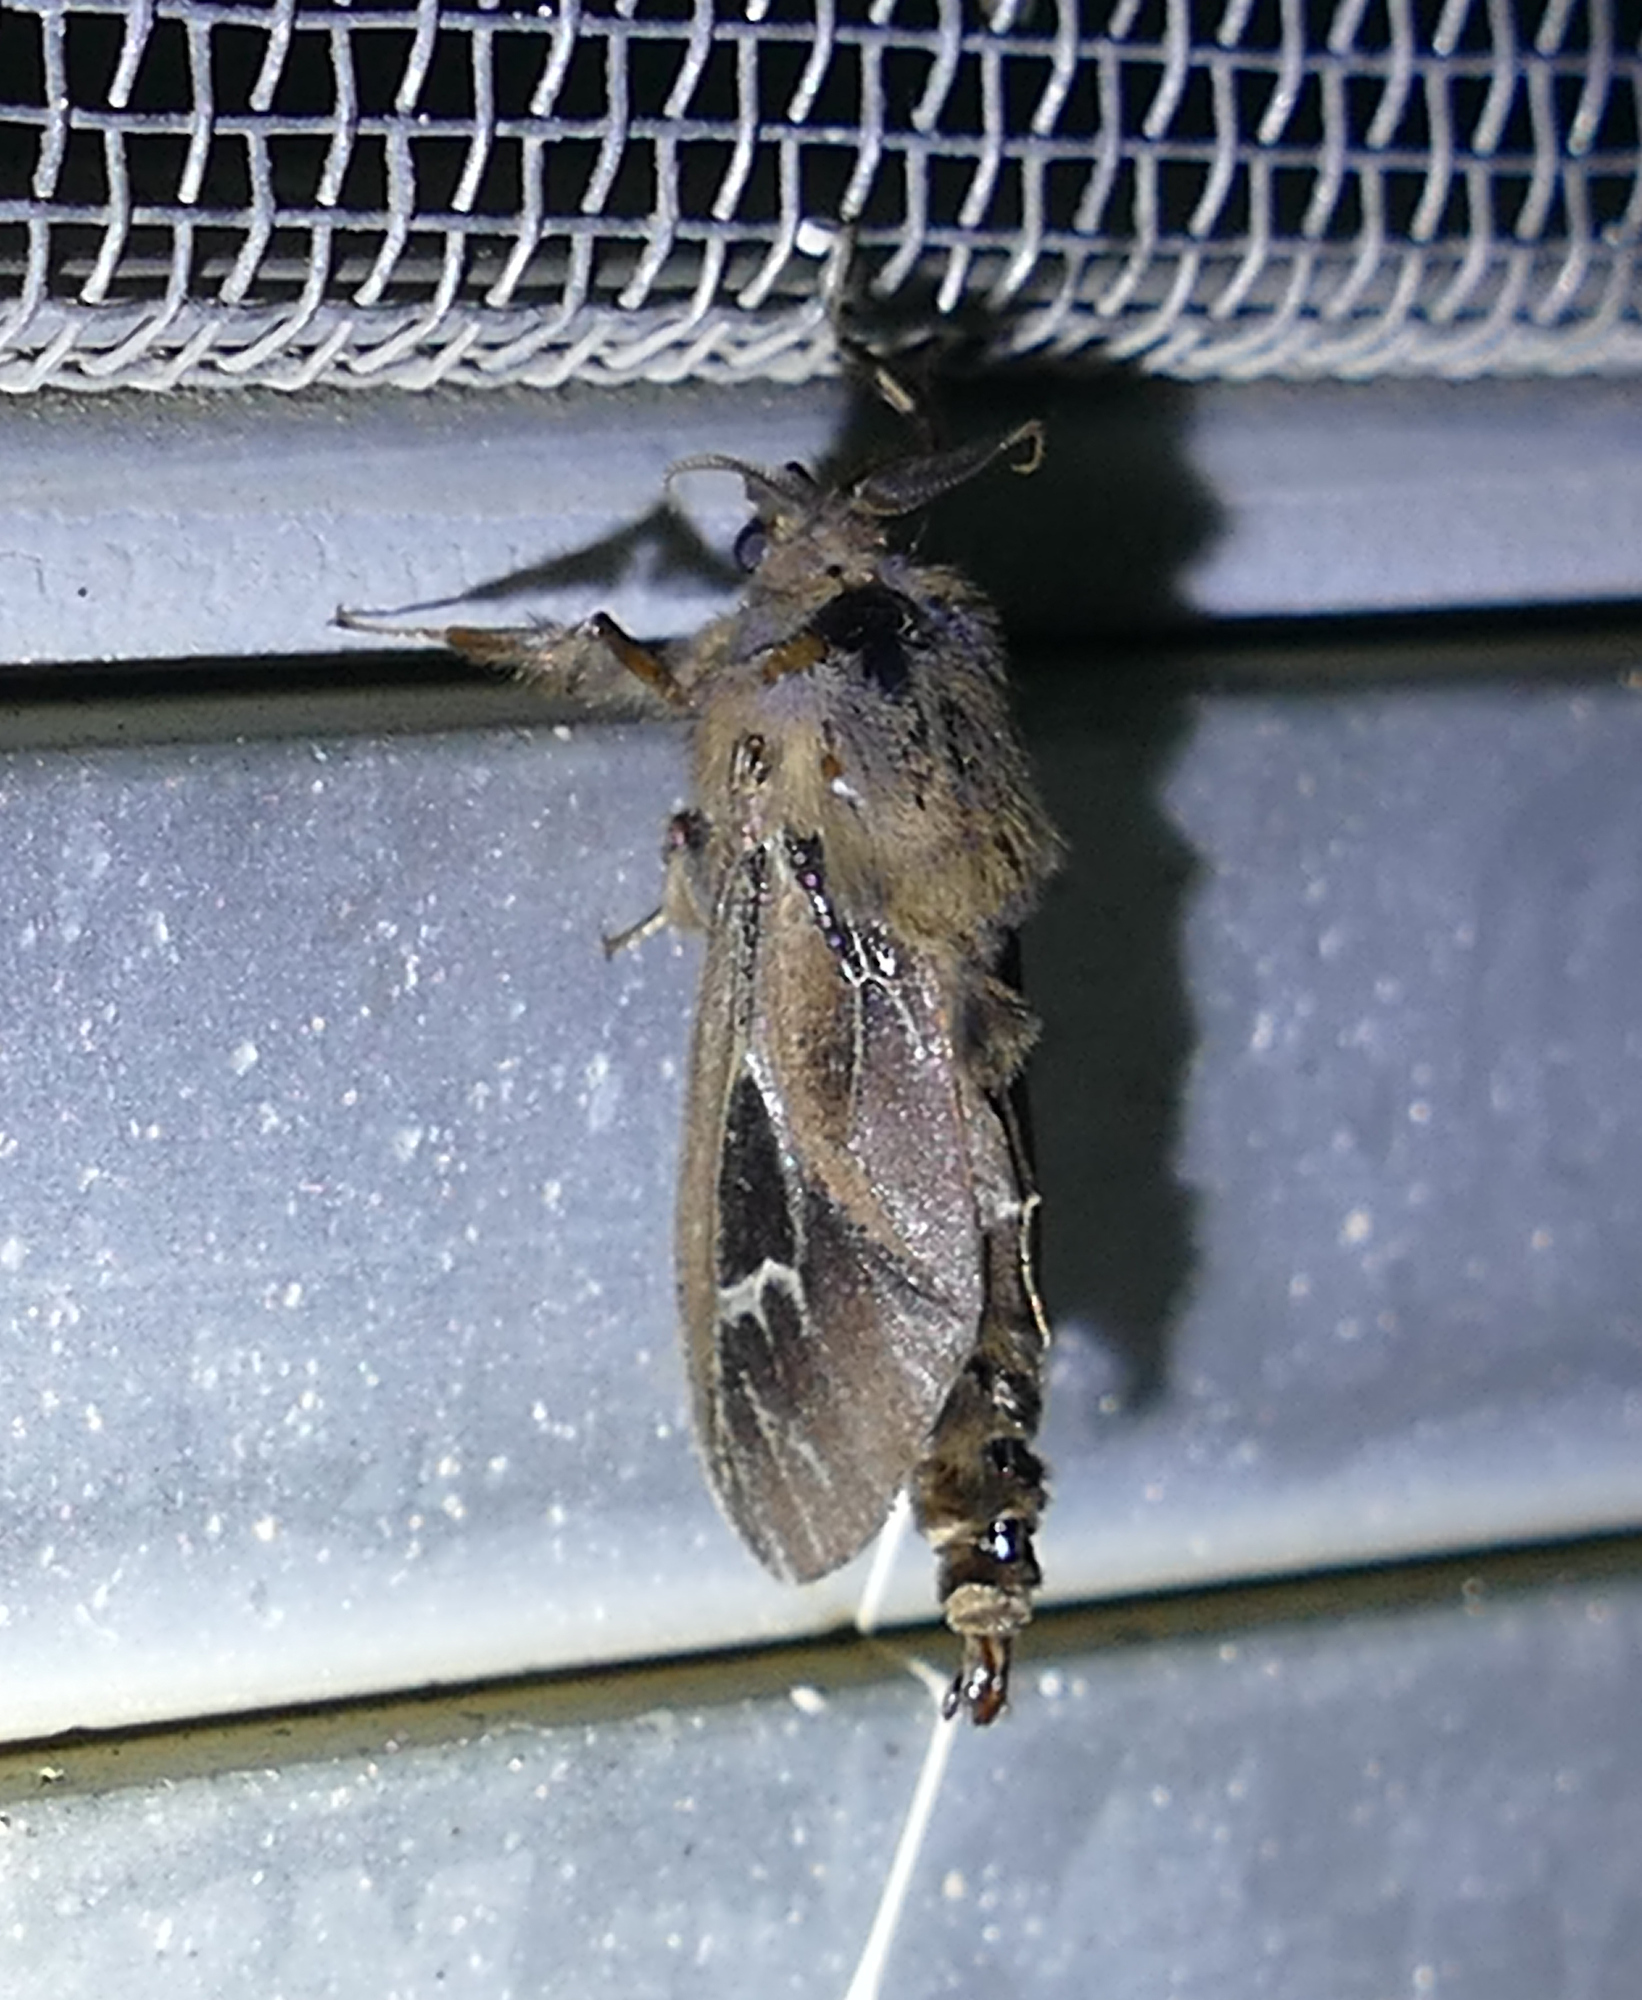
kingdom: Animalia
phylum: Arthropoda
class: Insecta
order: Lepidoptera
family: Psychidae
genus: Oiketicus
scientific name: Oiketicus
